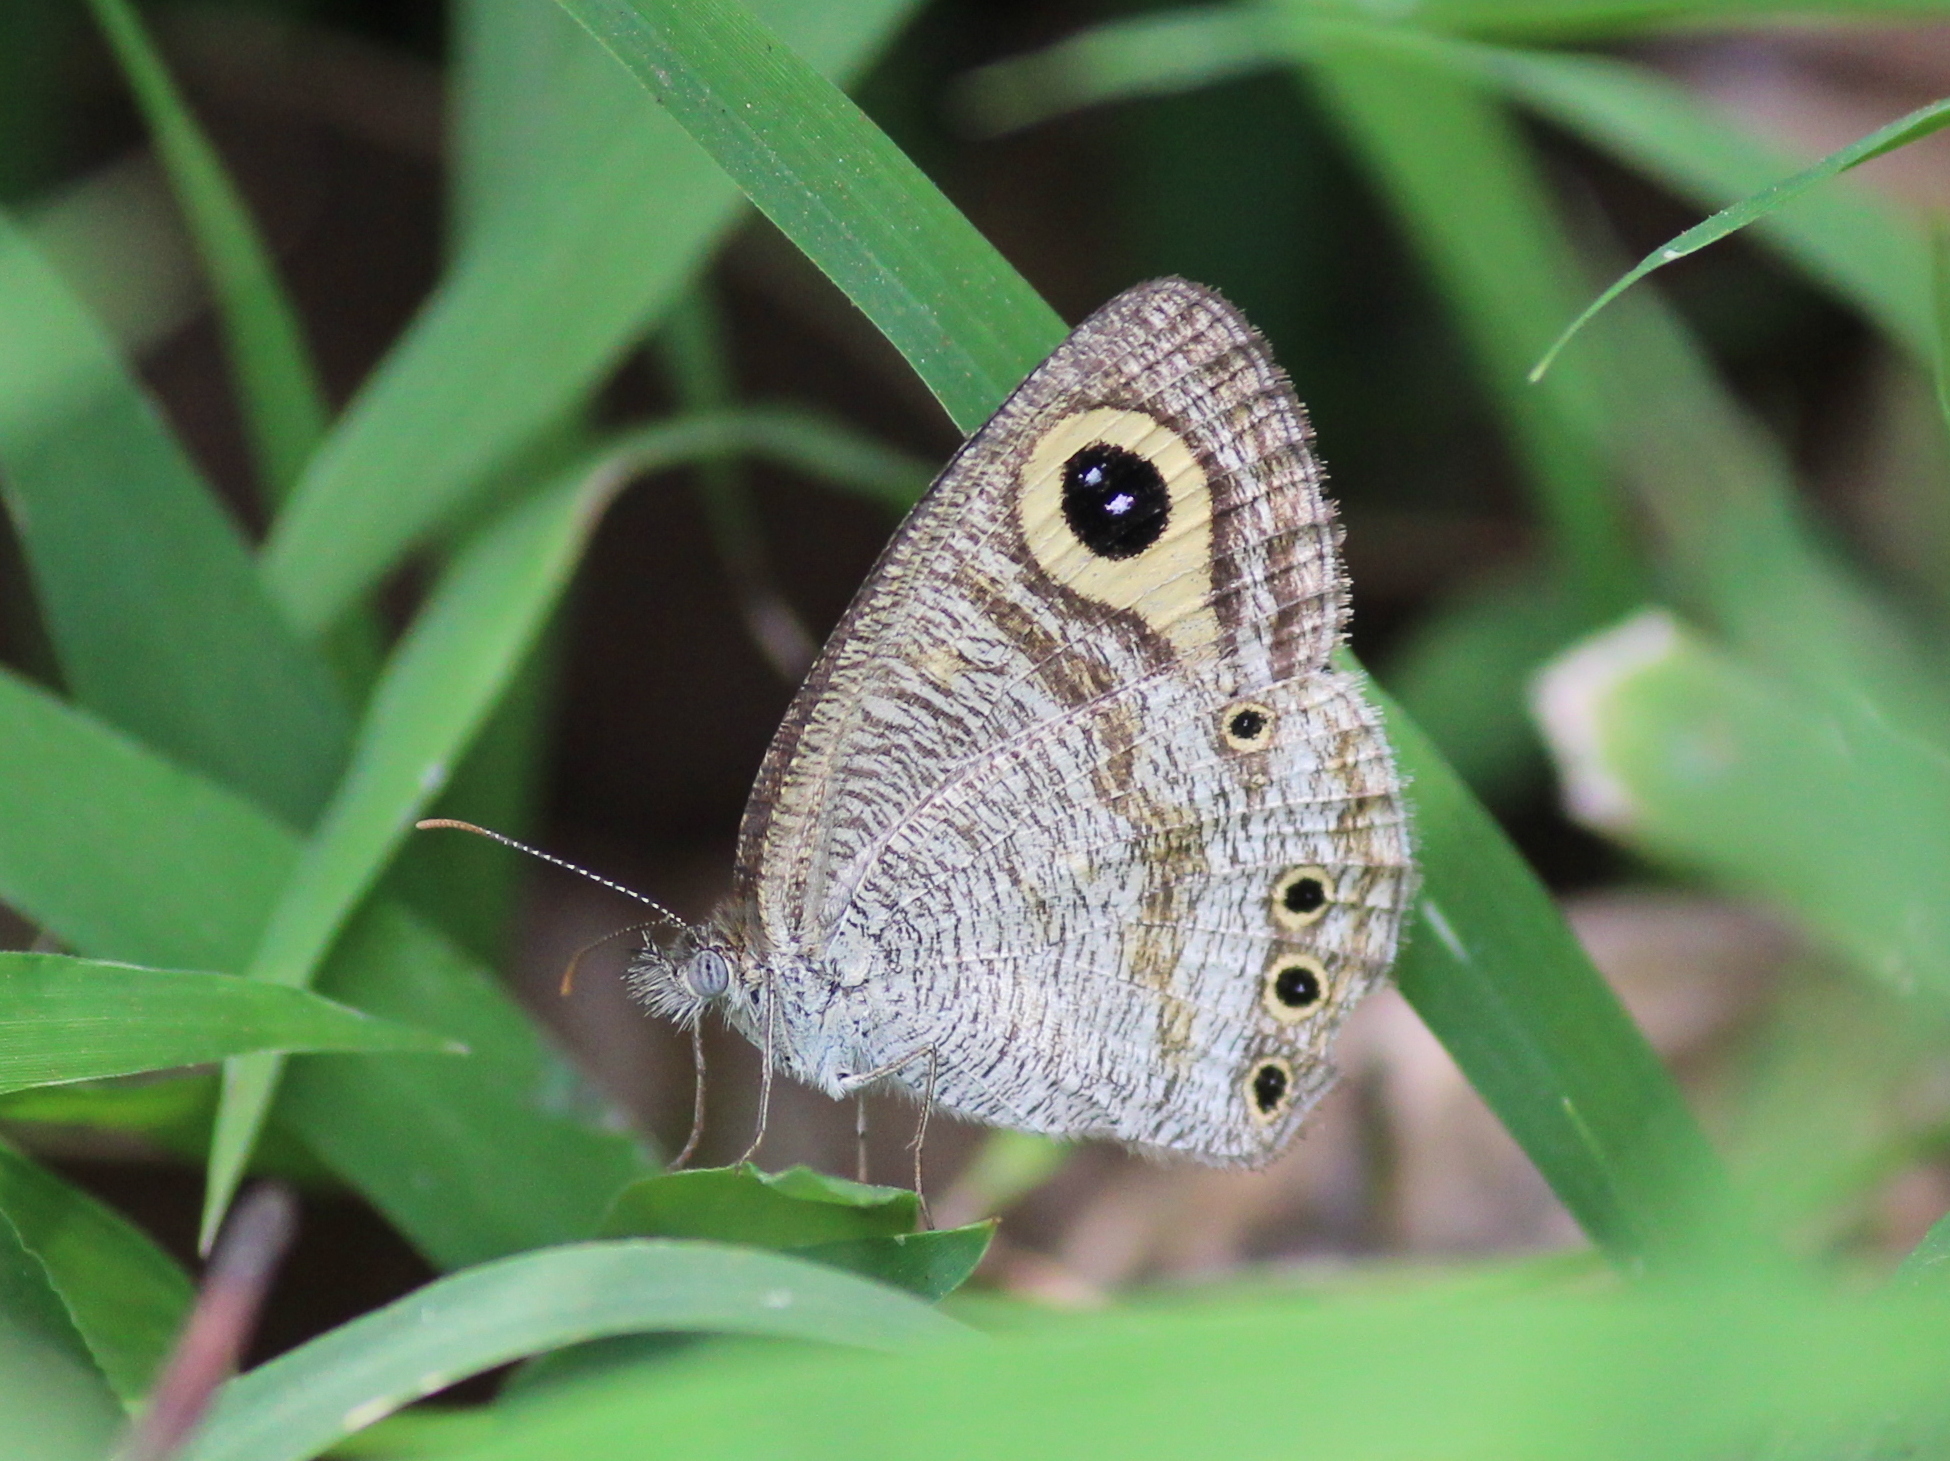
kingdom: Animalia
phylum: Arthropoda
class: Insecta
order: Lepidoptera
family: Nymphalidae
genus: Ypthima
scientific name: Ypthima huebneri
